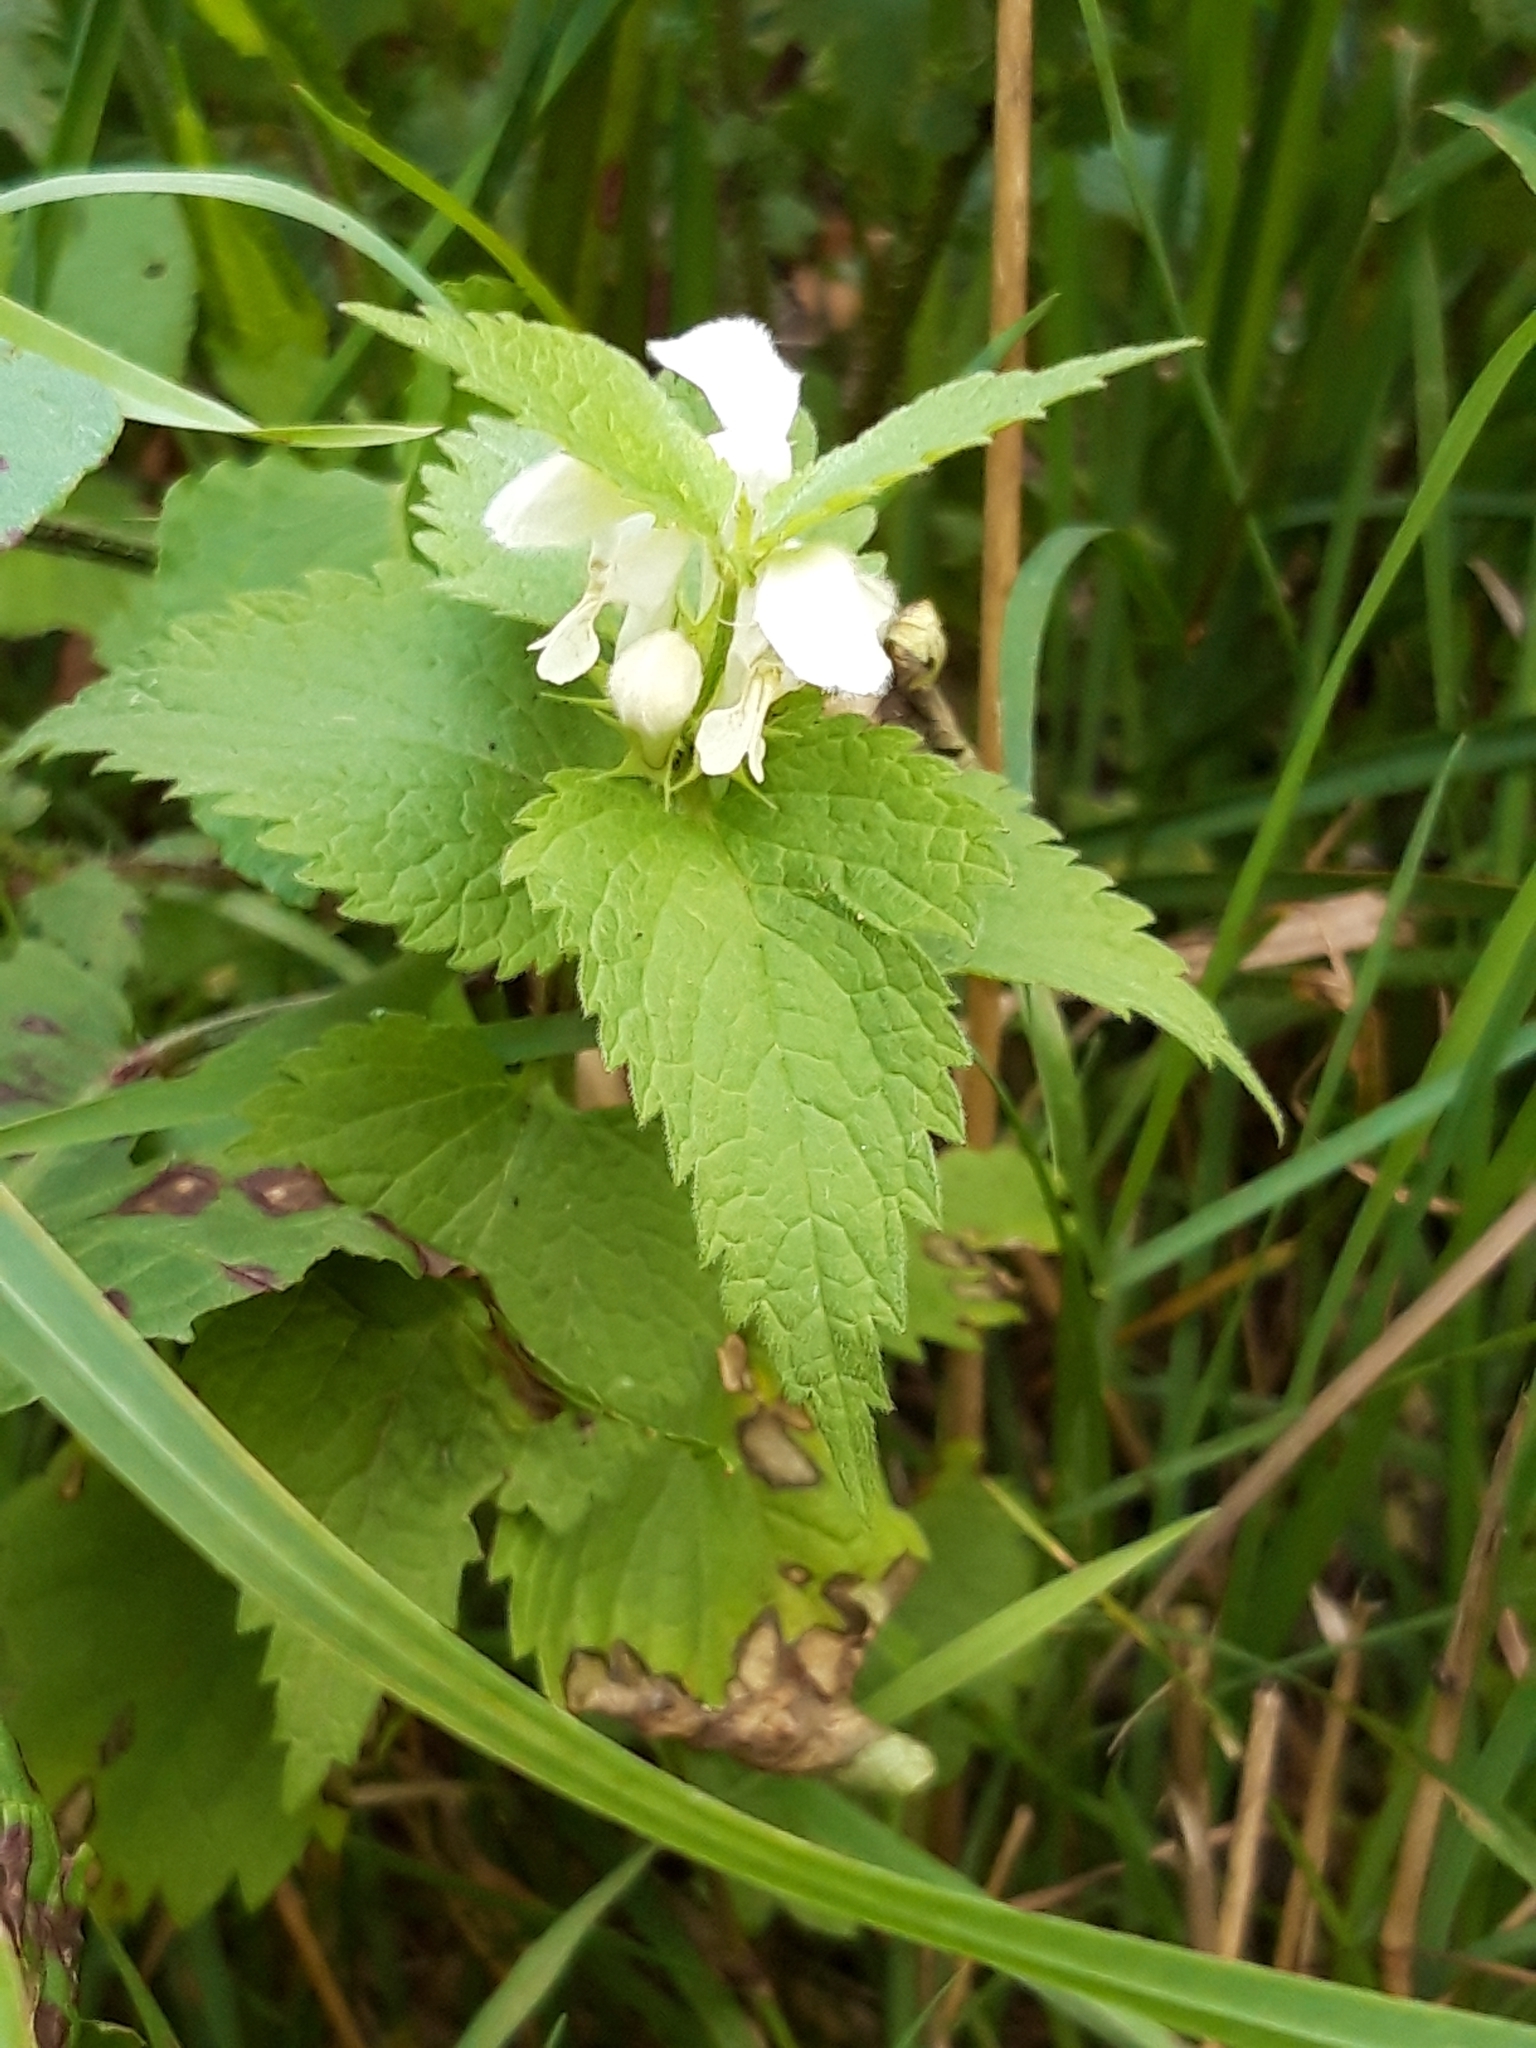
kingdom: Plantae
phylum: Tracheophyta
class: Magnoliopsida
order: Lamiales
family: Lamiaceae
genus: Lamium
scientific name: Lamium album
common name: White dead-nettle
